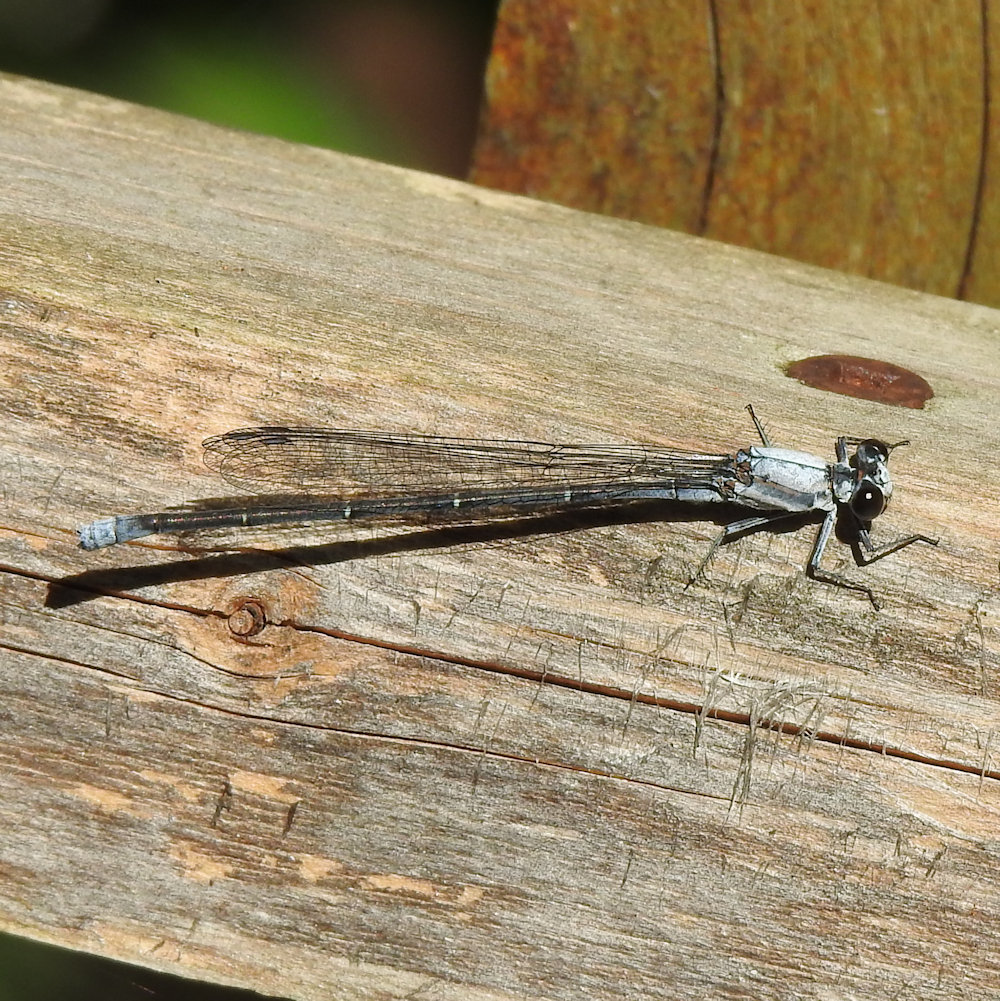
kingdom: Animalia
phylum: Arthropoda
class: Insecta
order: Odonata
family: Coenagrionidae
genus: Argia
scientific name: Argia moesta
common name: Powdered dancer
